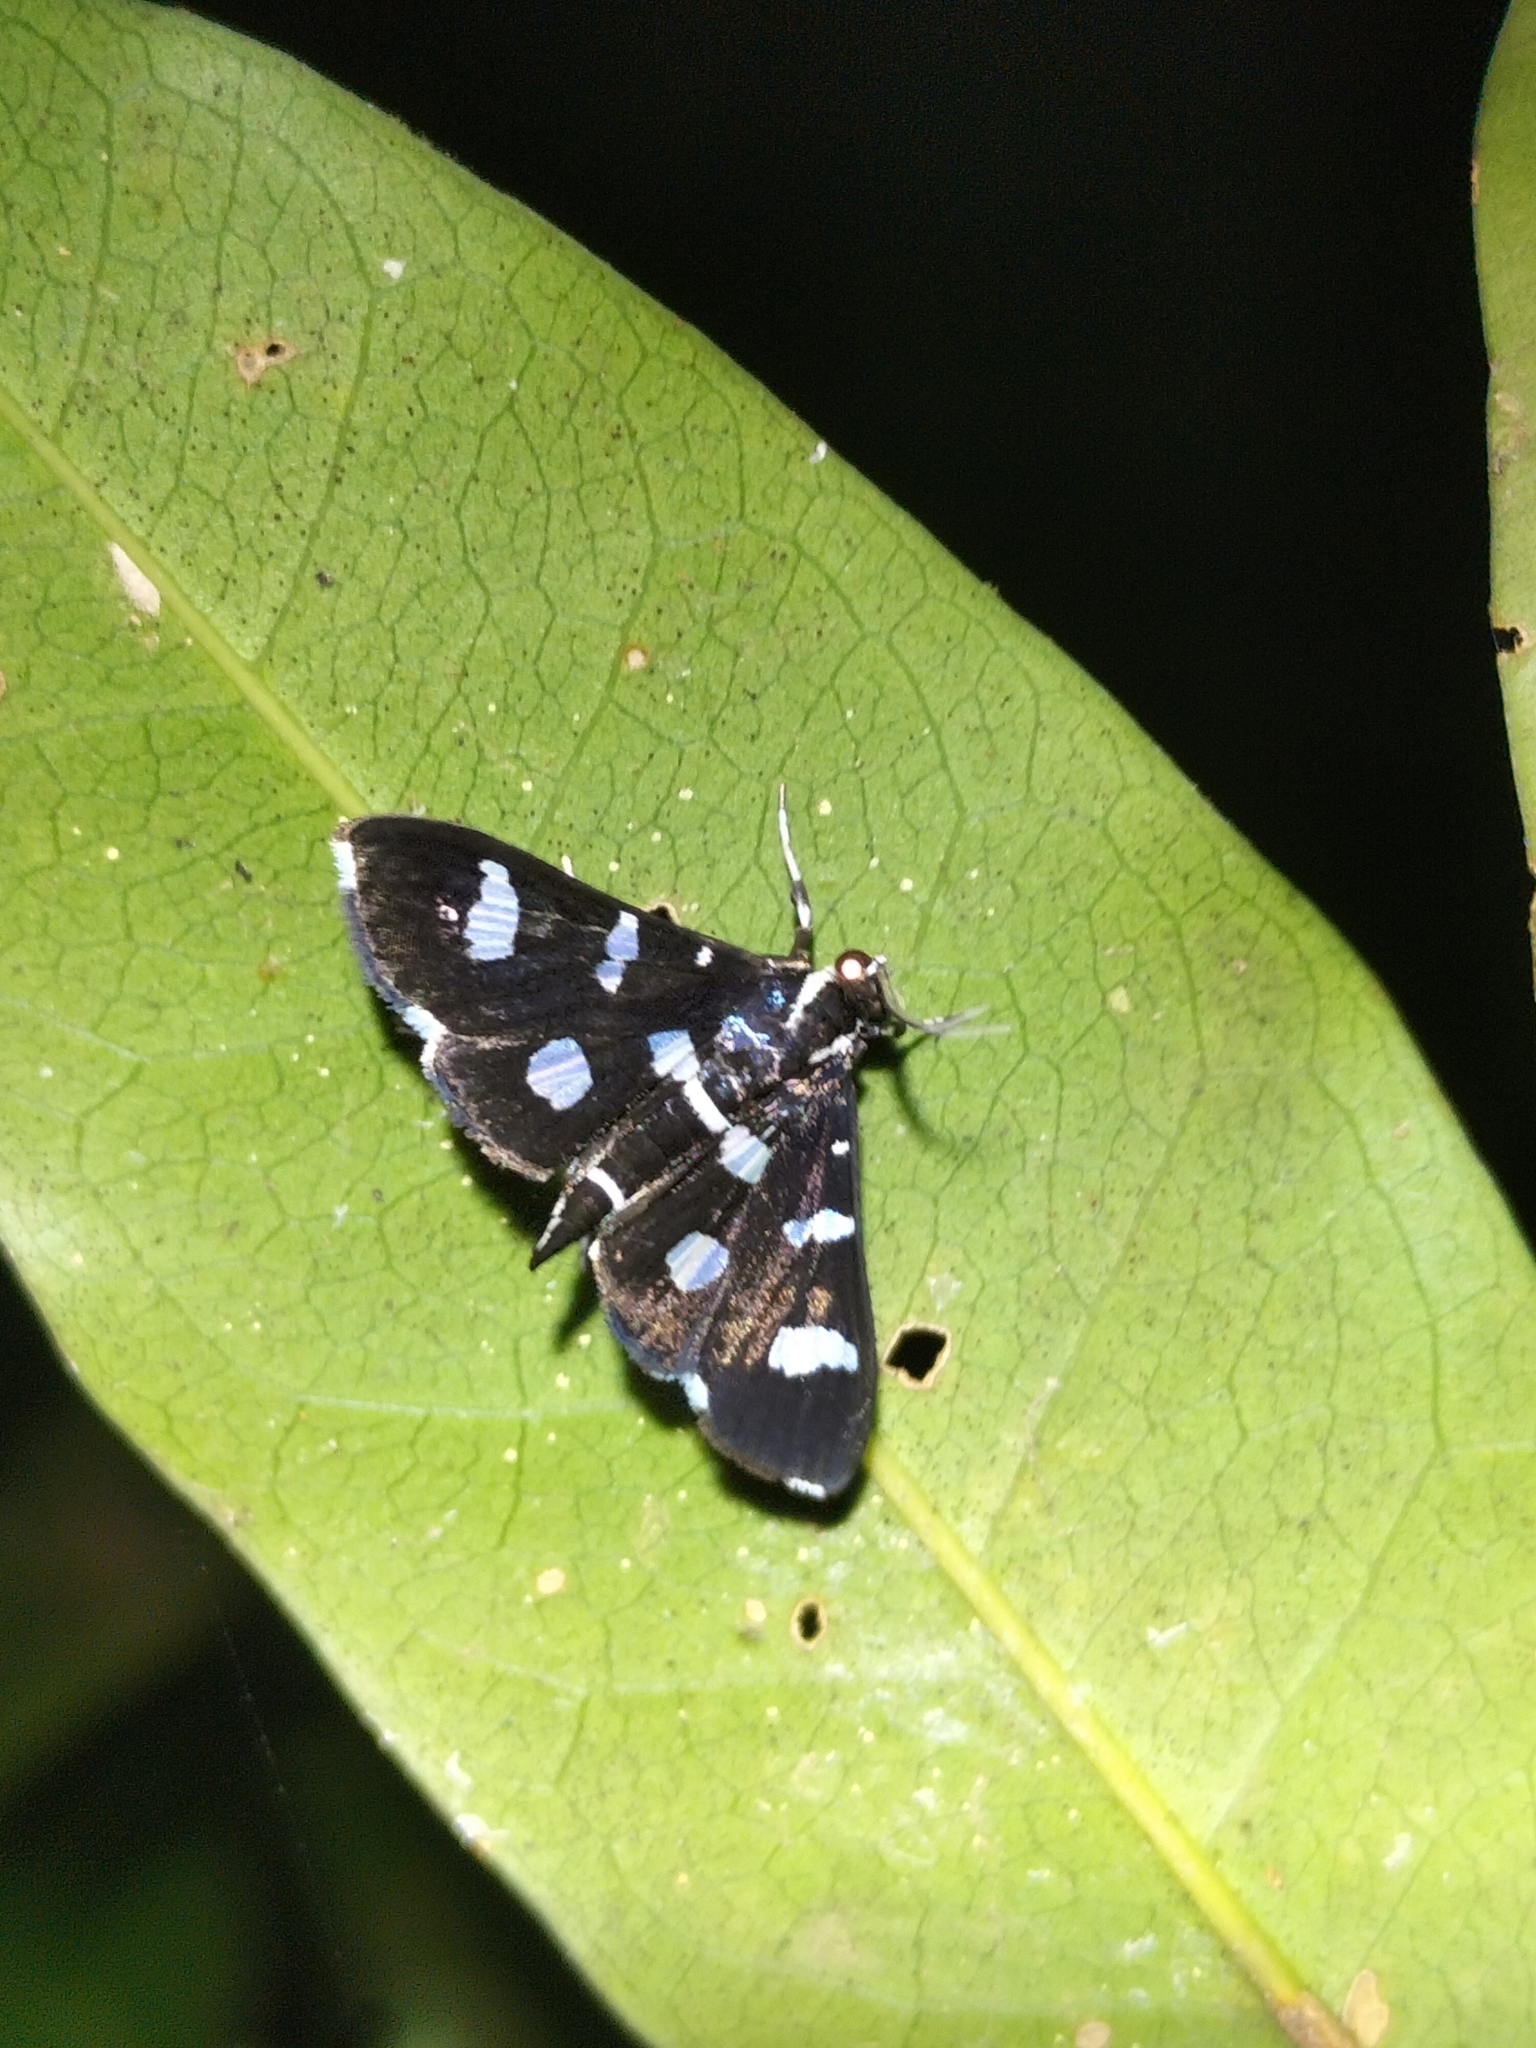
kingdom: Animalia
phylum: Arthropoda
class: Insecta
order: Lepidoptera
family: Crambidae
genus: Desmia
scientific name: Desmia discrepans
